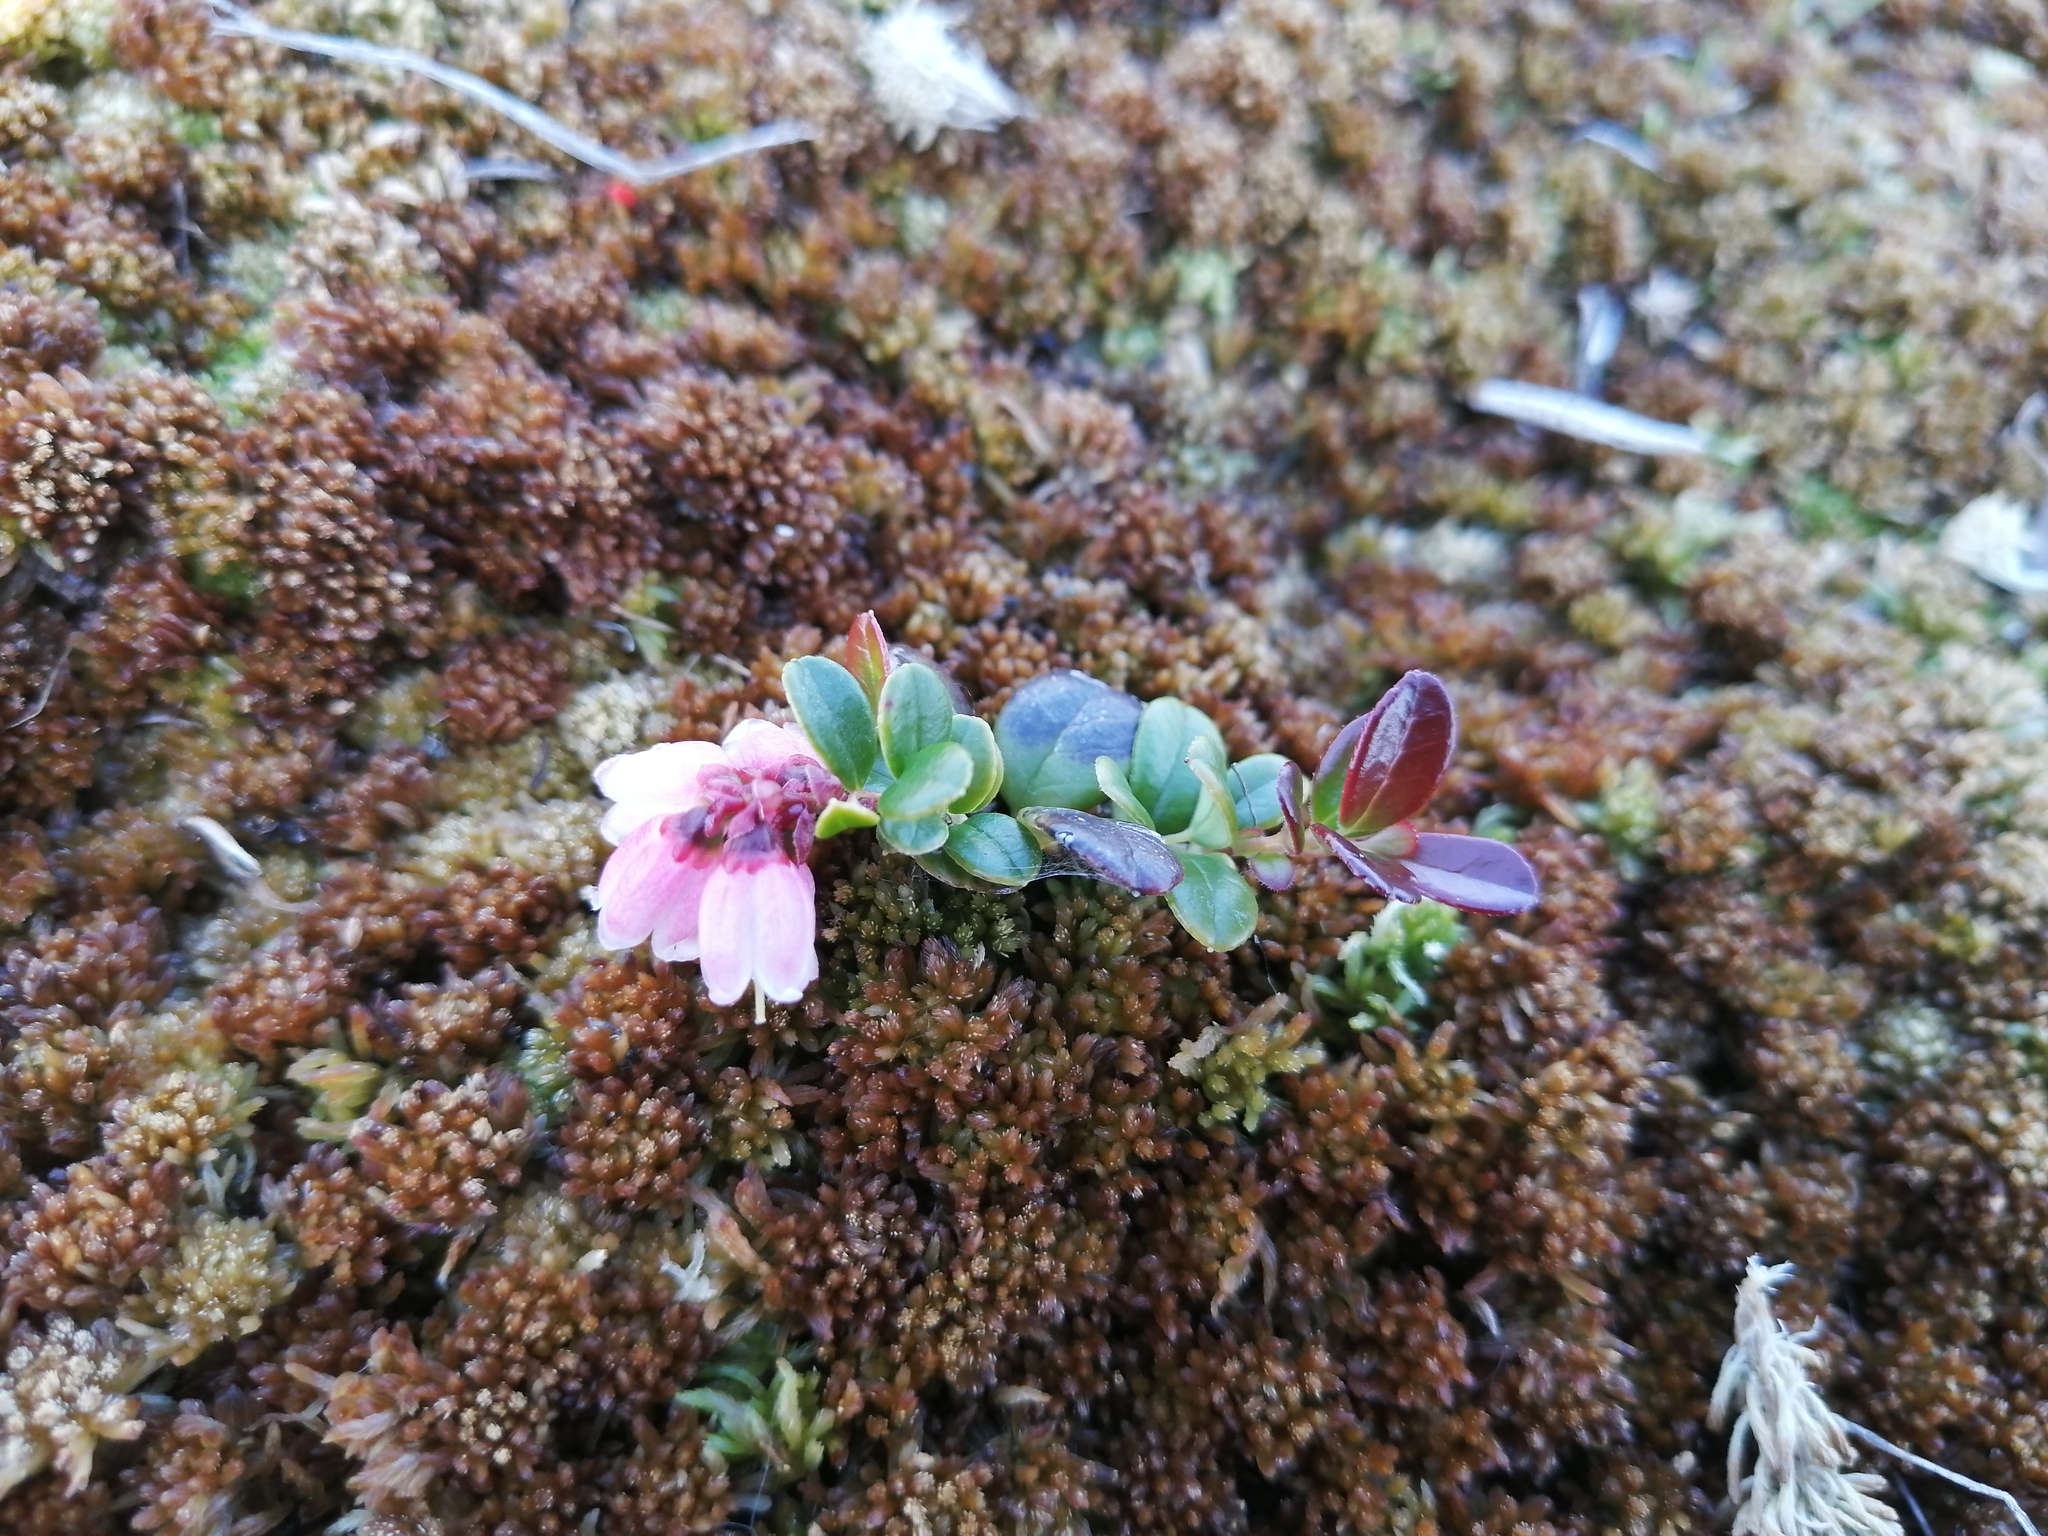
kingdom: Plantae
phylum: Tracheophyta
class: Magnoliopsida
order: Ericales
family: Ericaceae
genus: Vaccinium
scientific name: Vaccinium vitis-idaea
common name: Cowberry
